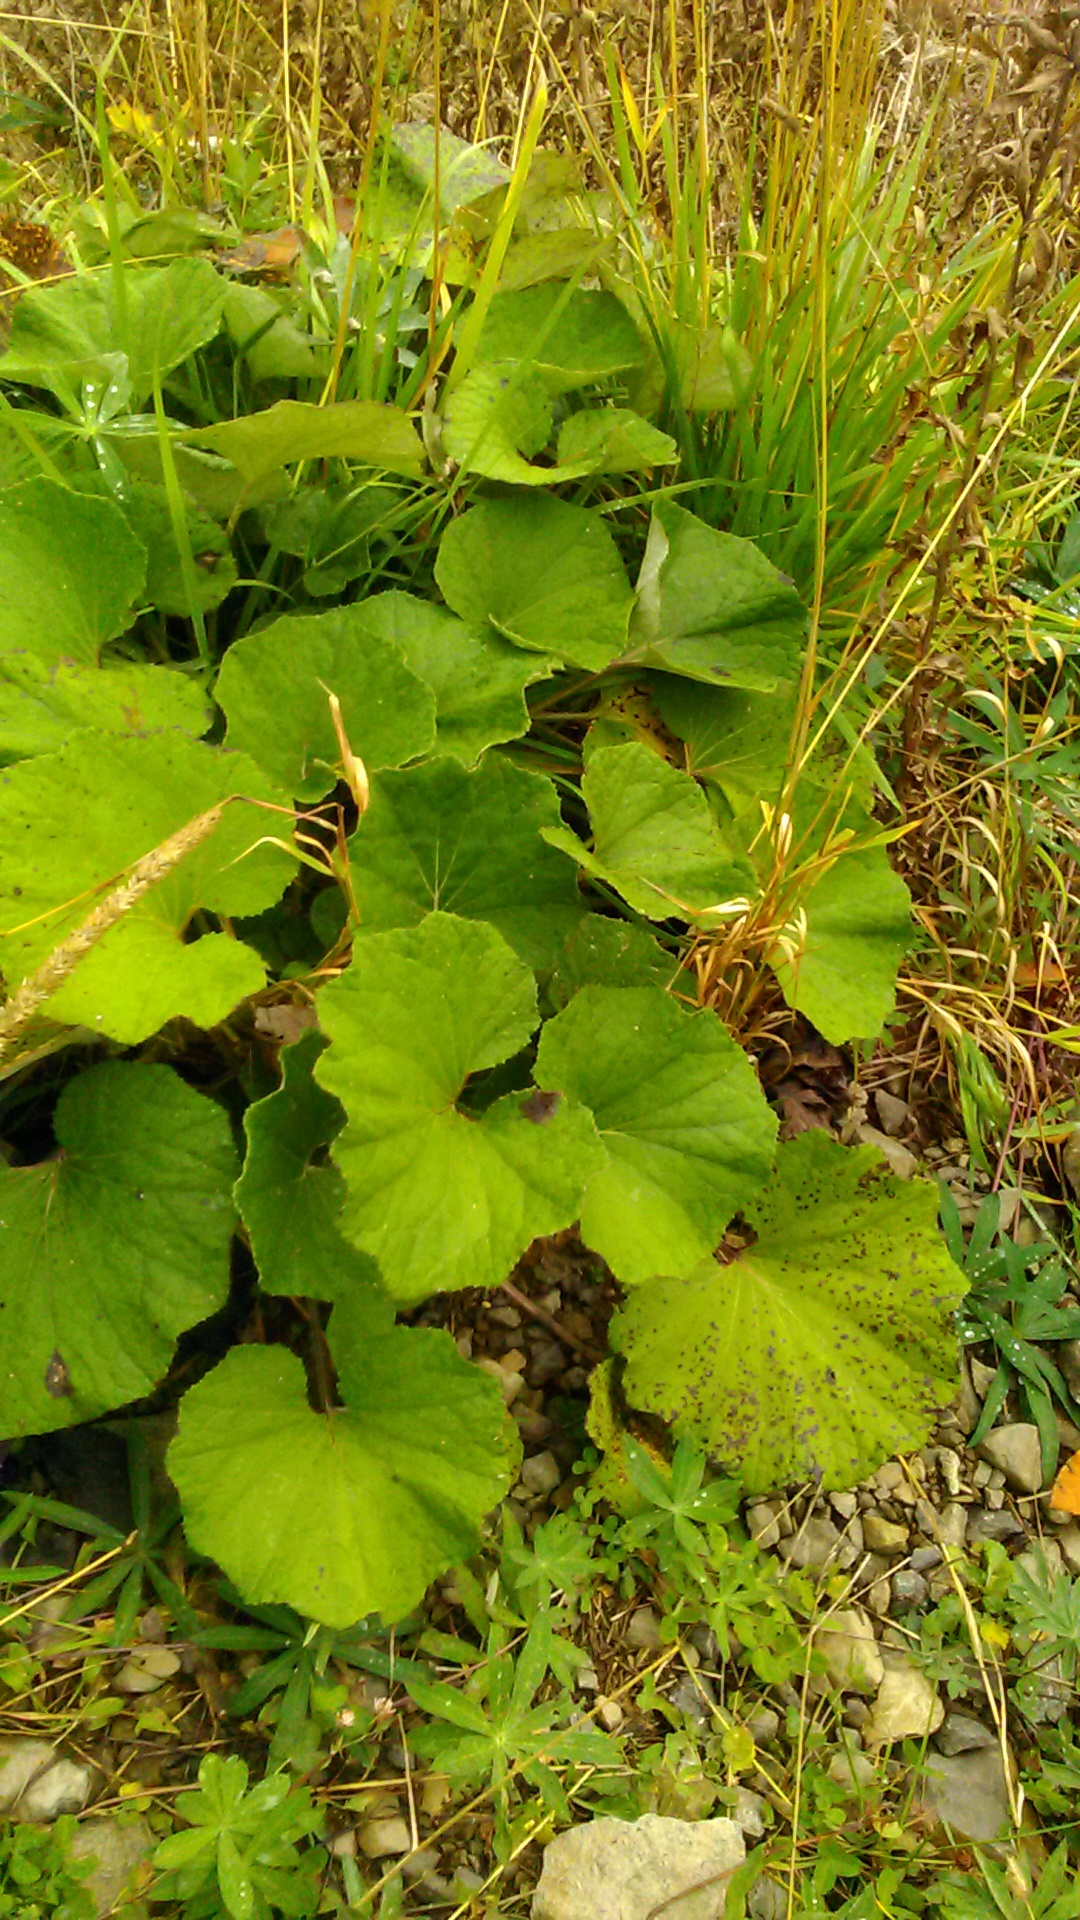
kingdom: Plantae
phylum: Tracheophyta
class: Magnoliopsida
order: Asterales
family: Asteraceae
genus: Tussilago
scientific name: Tussilago farfara
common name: Coltsfoot
